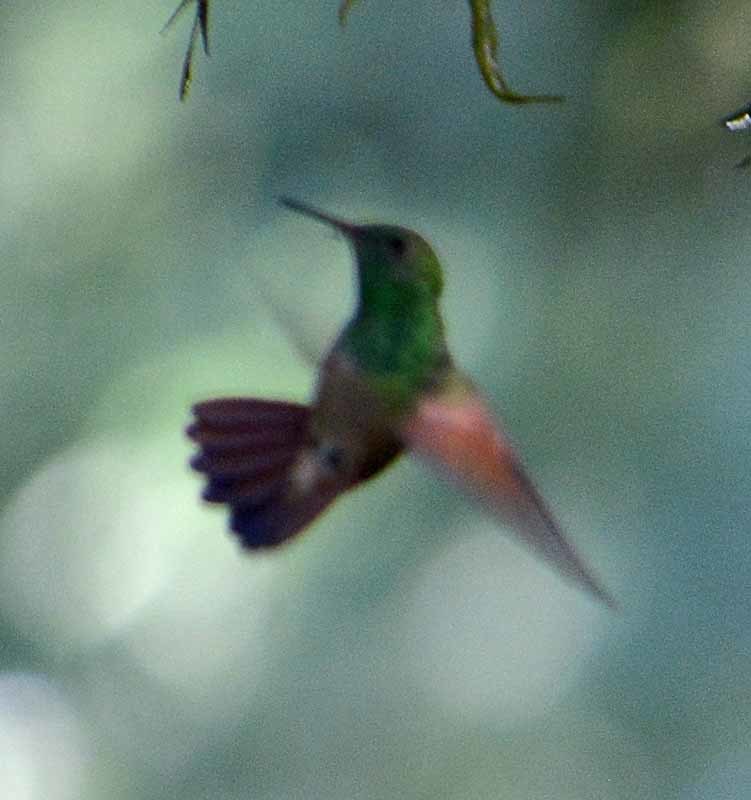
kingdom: Animalia
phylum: Chordata
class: Aves
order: Apodiformes
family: Trochilidae
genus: Saucerottia
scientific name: Saucerottia beryllina
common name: Berylline hummingbird
